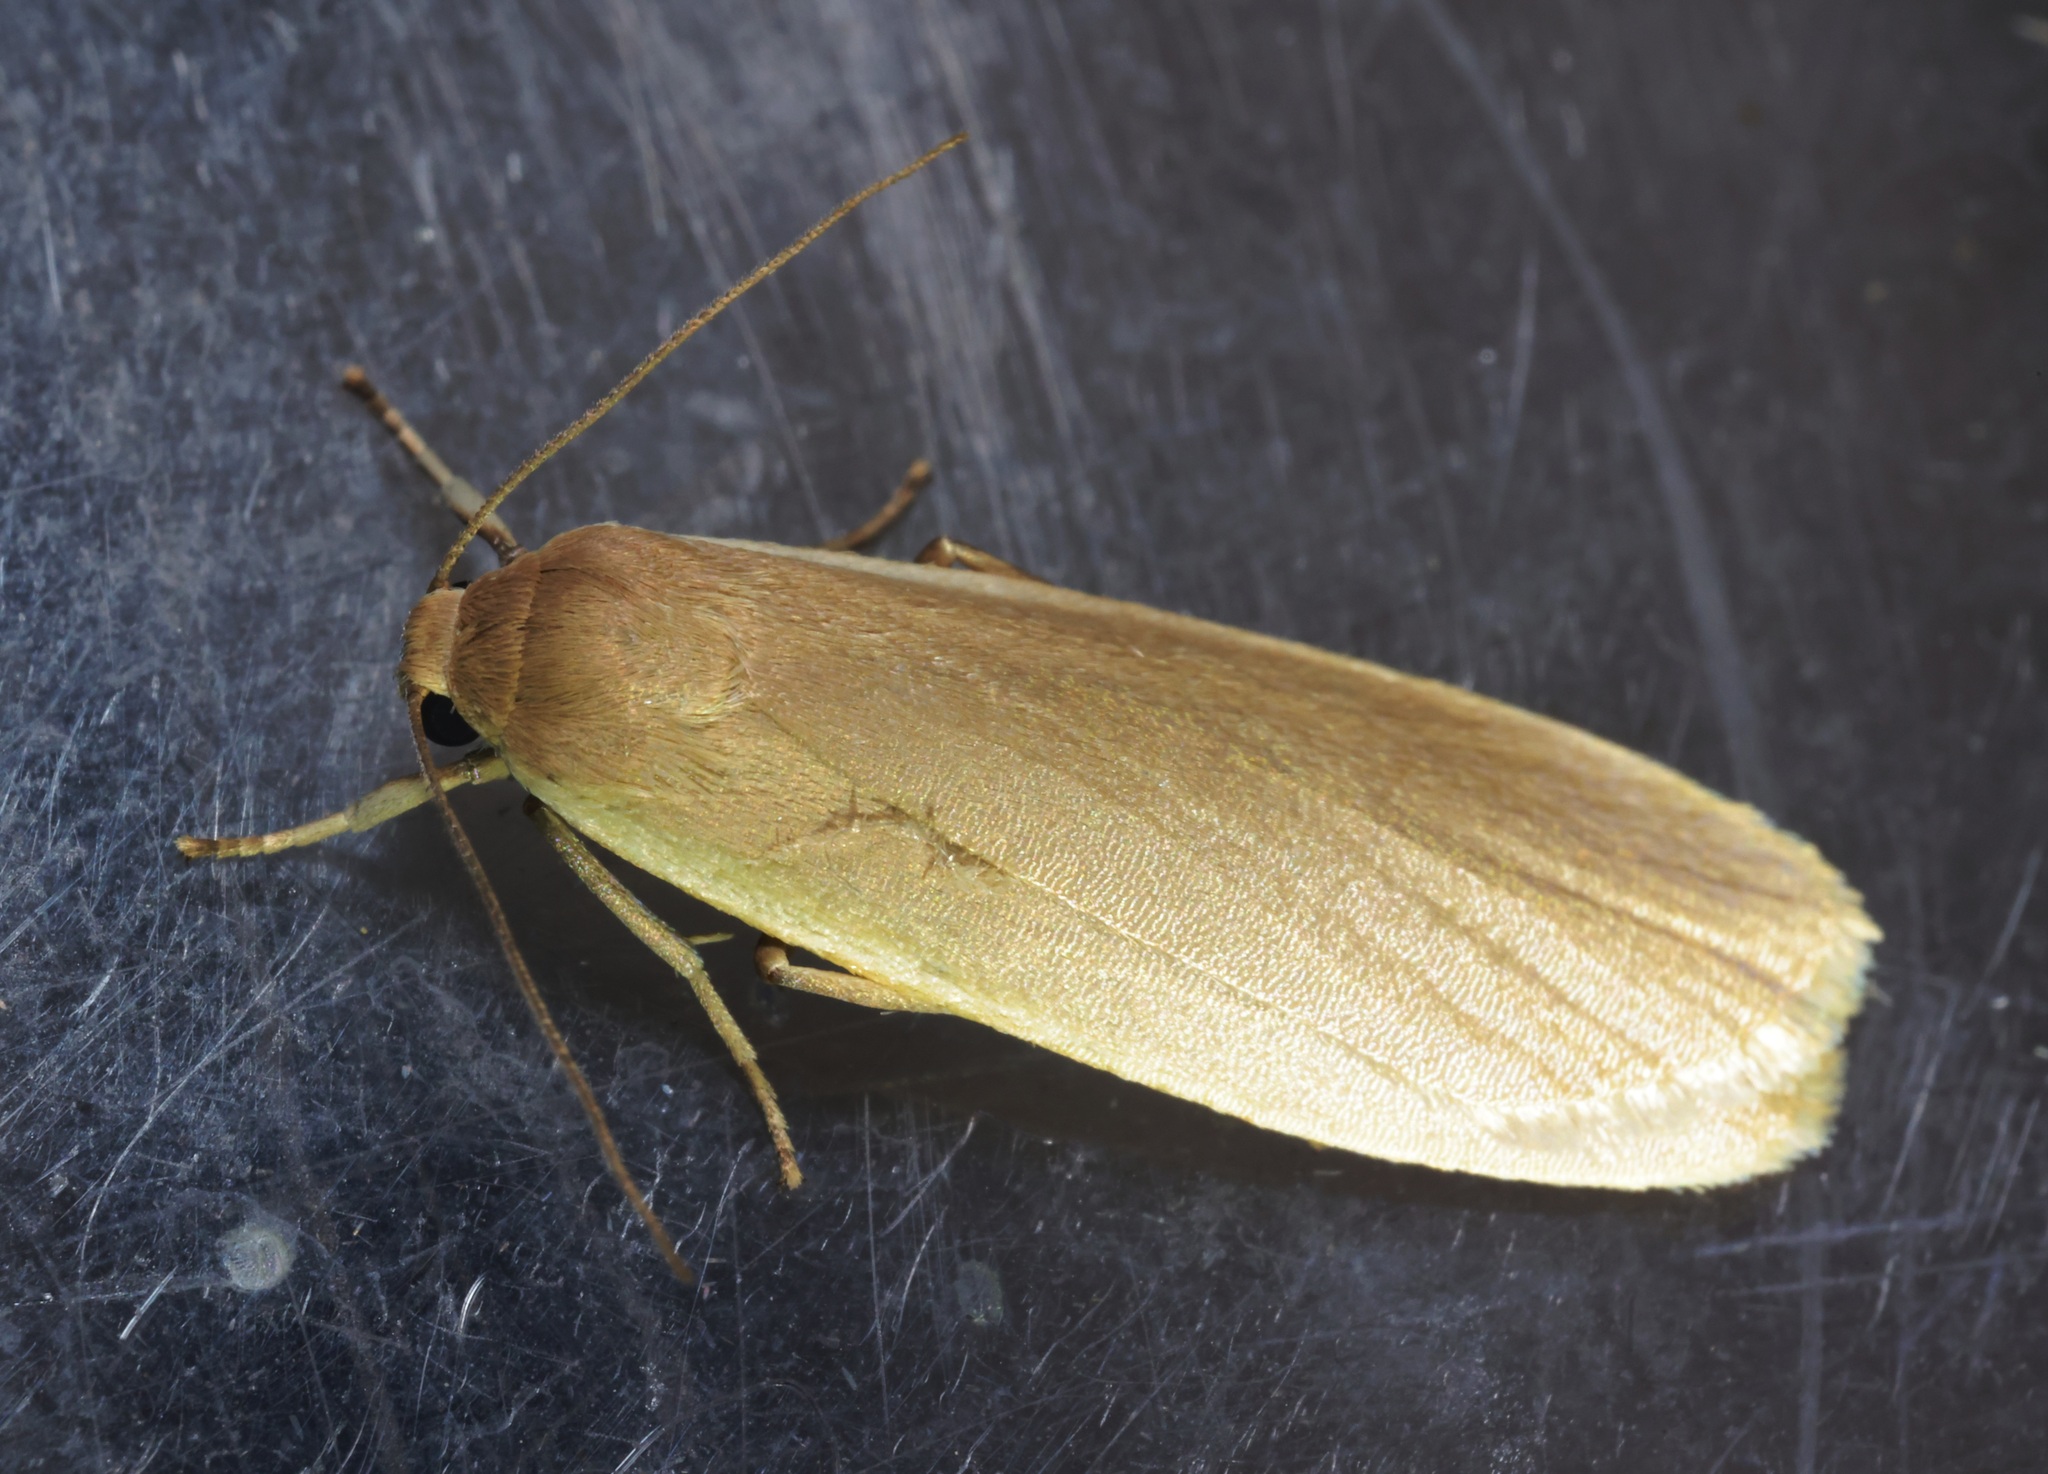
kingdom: Animalia
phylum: Arthropoda
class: Insecta
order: Lepidoptera
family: Erebidae
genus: Danielithosia
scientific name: Danielithosia immaculata
